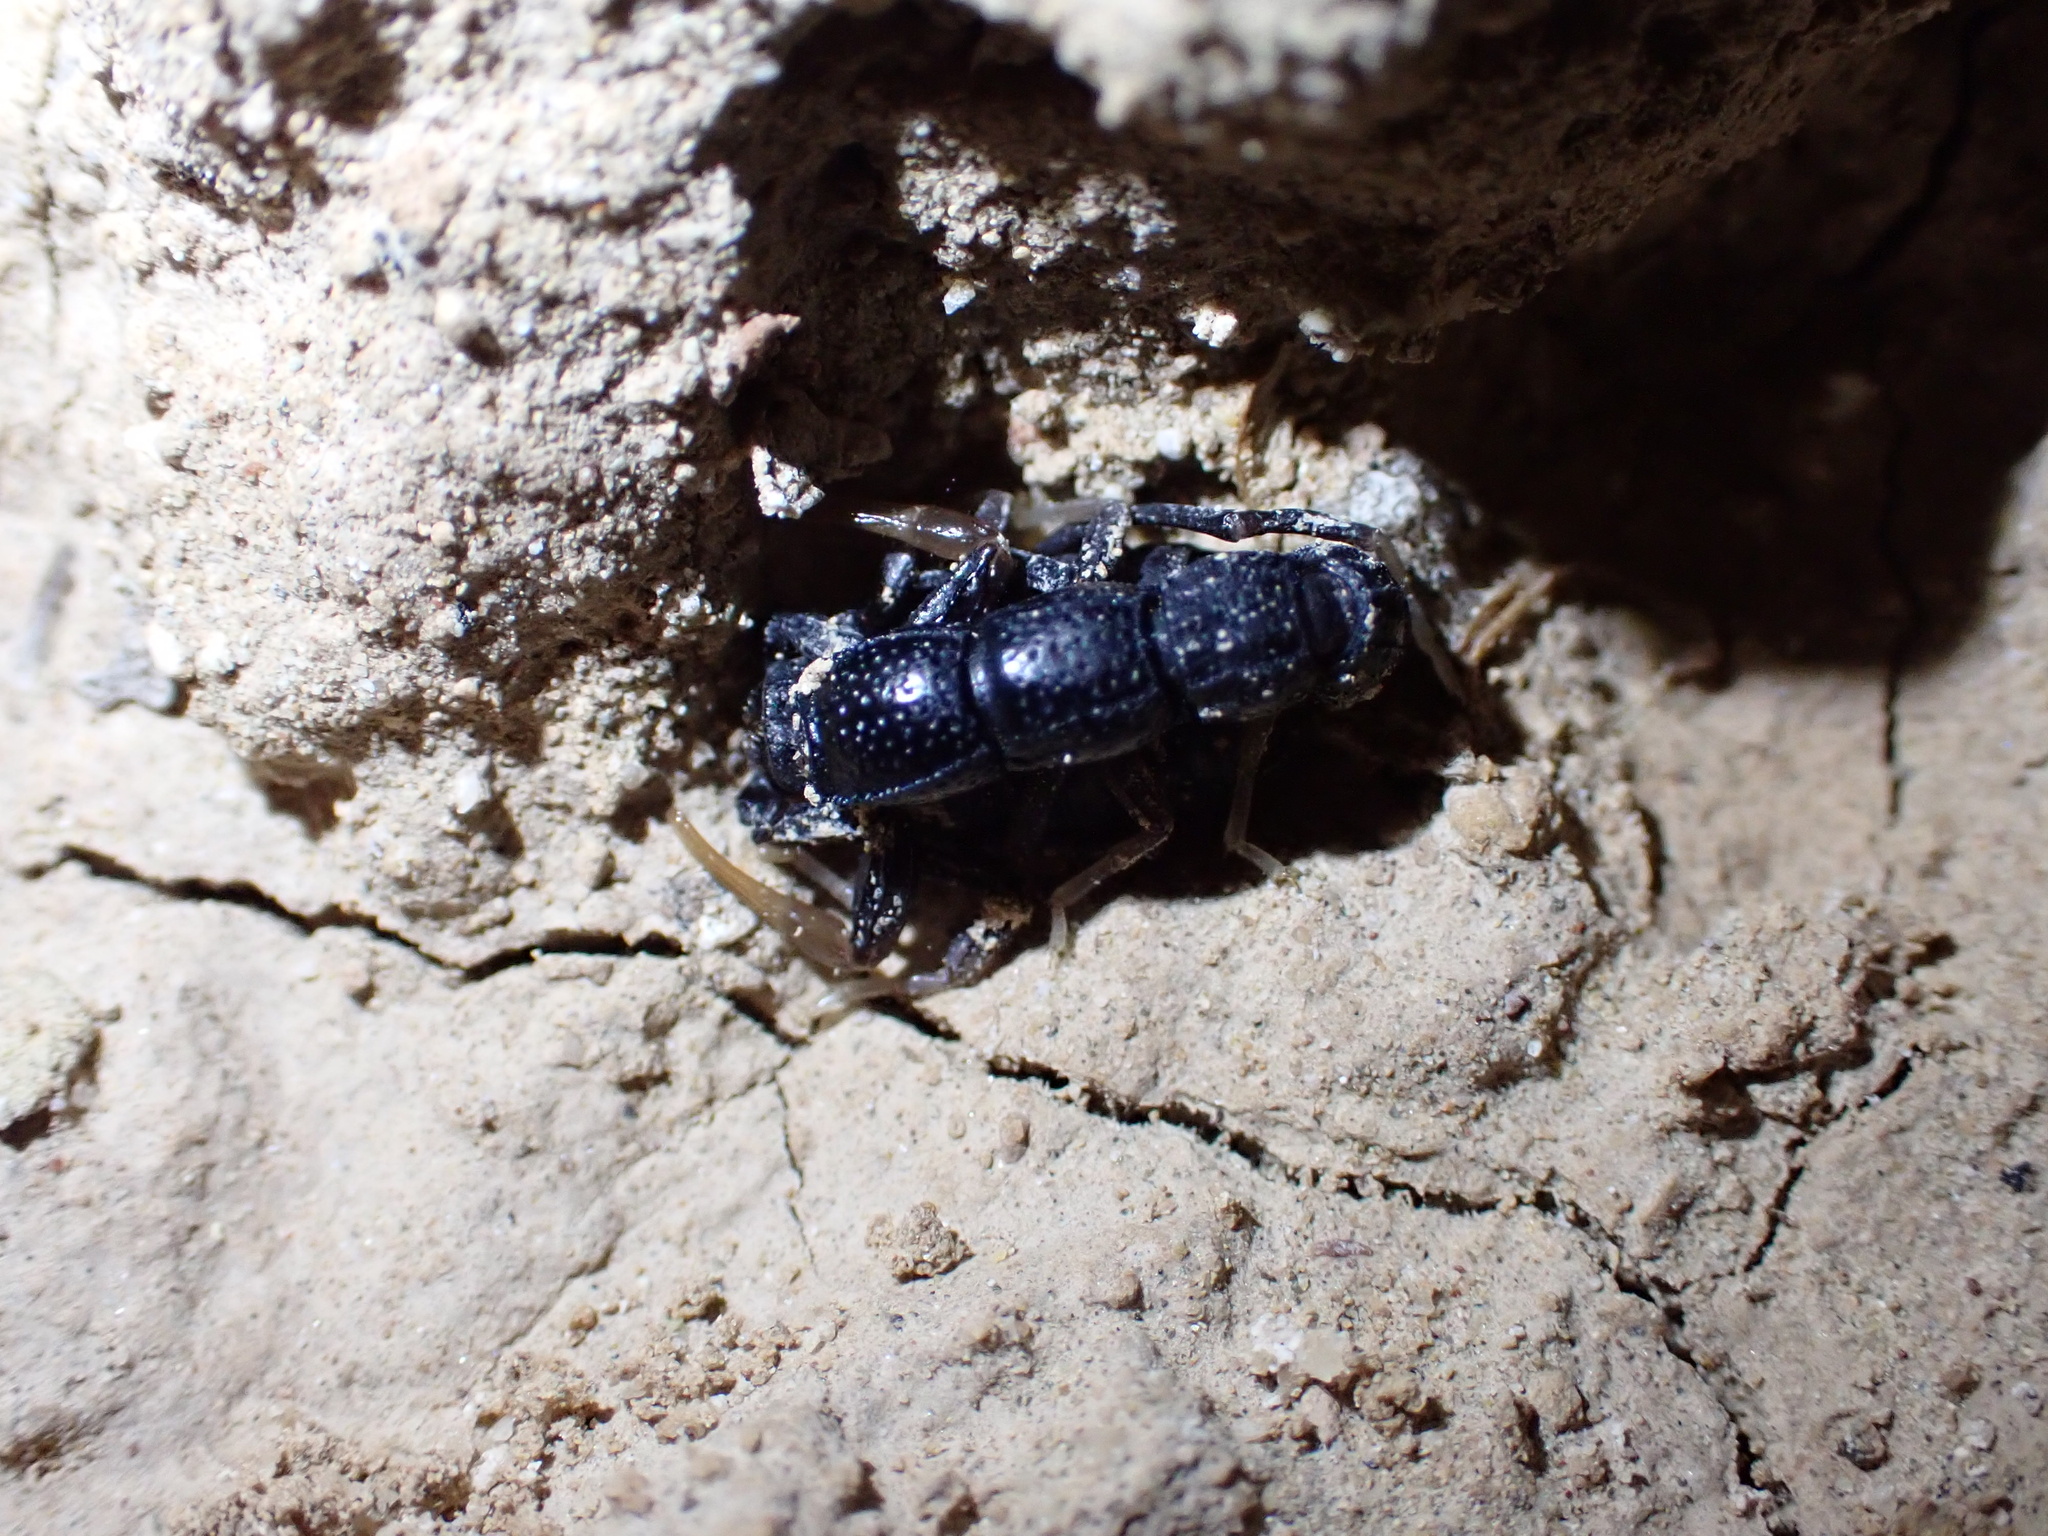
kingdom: Animalia
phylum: Arthropoda
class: Arachnida
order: Scorpiones
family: Buthidae
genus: Orthochirus
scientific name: Orthochirus mesopotamicus
